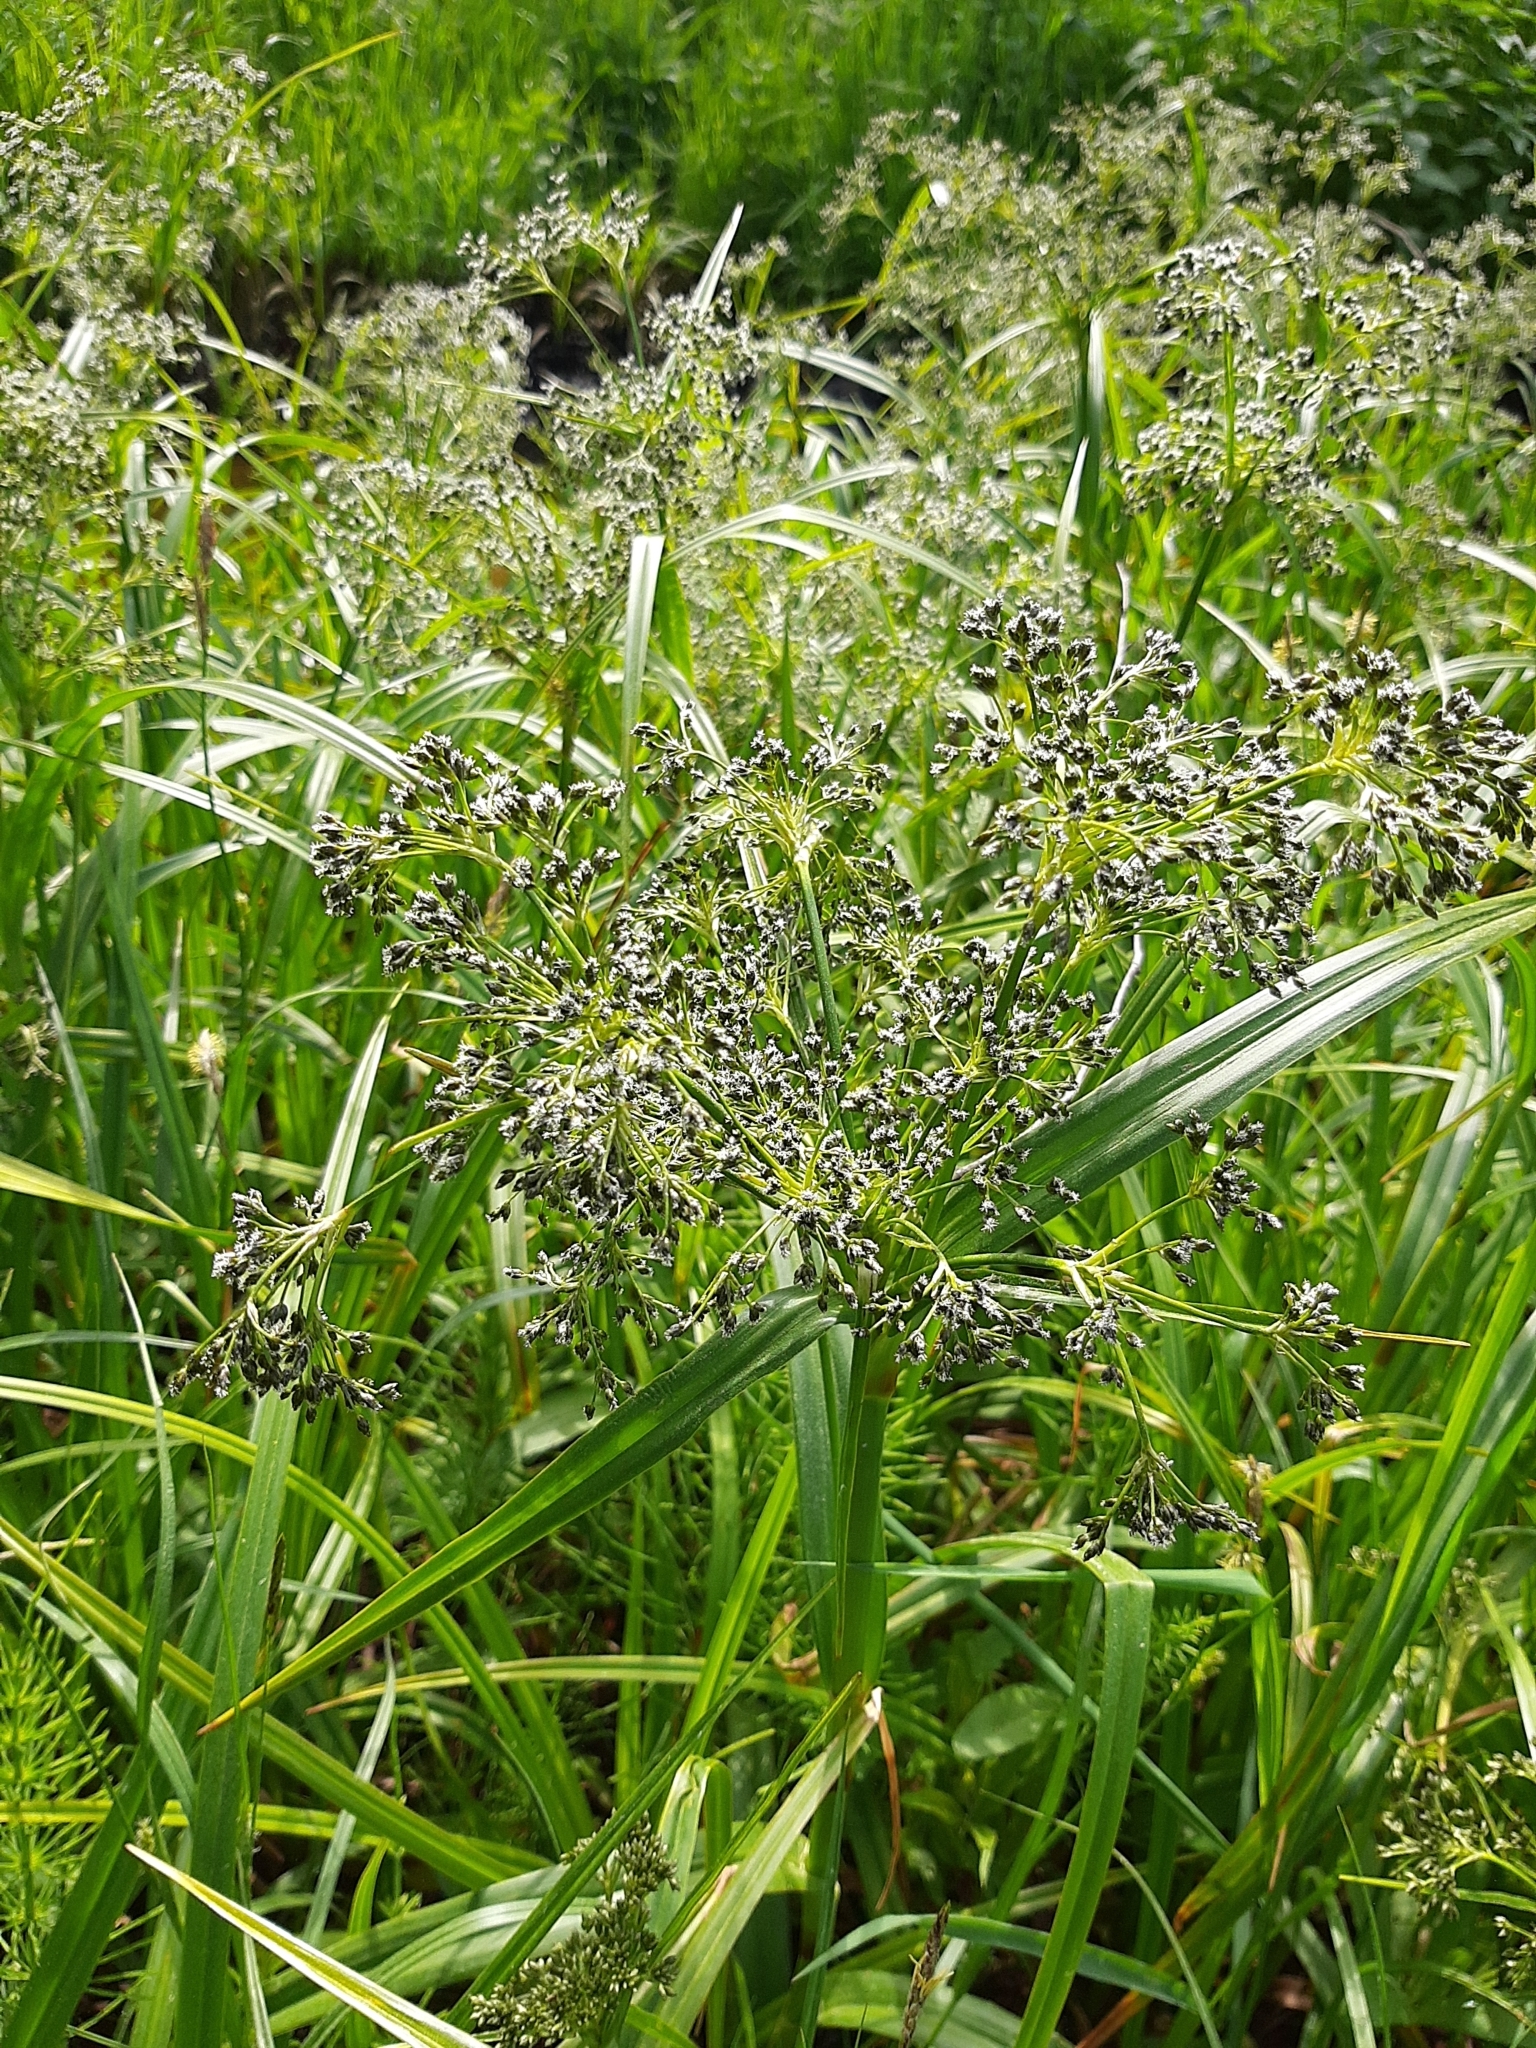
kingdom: Plantae
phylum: Tracheophyta
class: Liliopsida
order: Poales
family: Cyperaceae
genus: Scirpus
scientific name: Scirpus sylvaticus
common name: Wood club-rush
